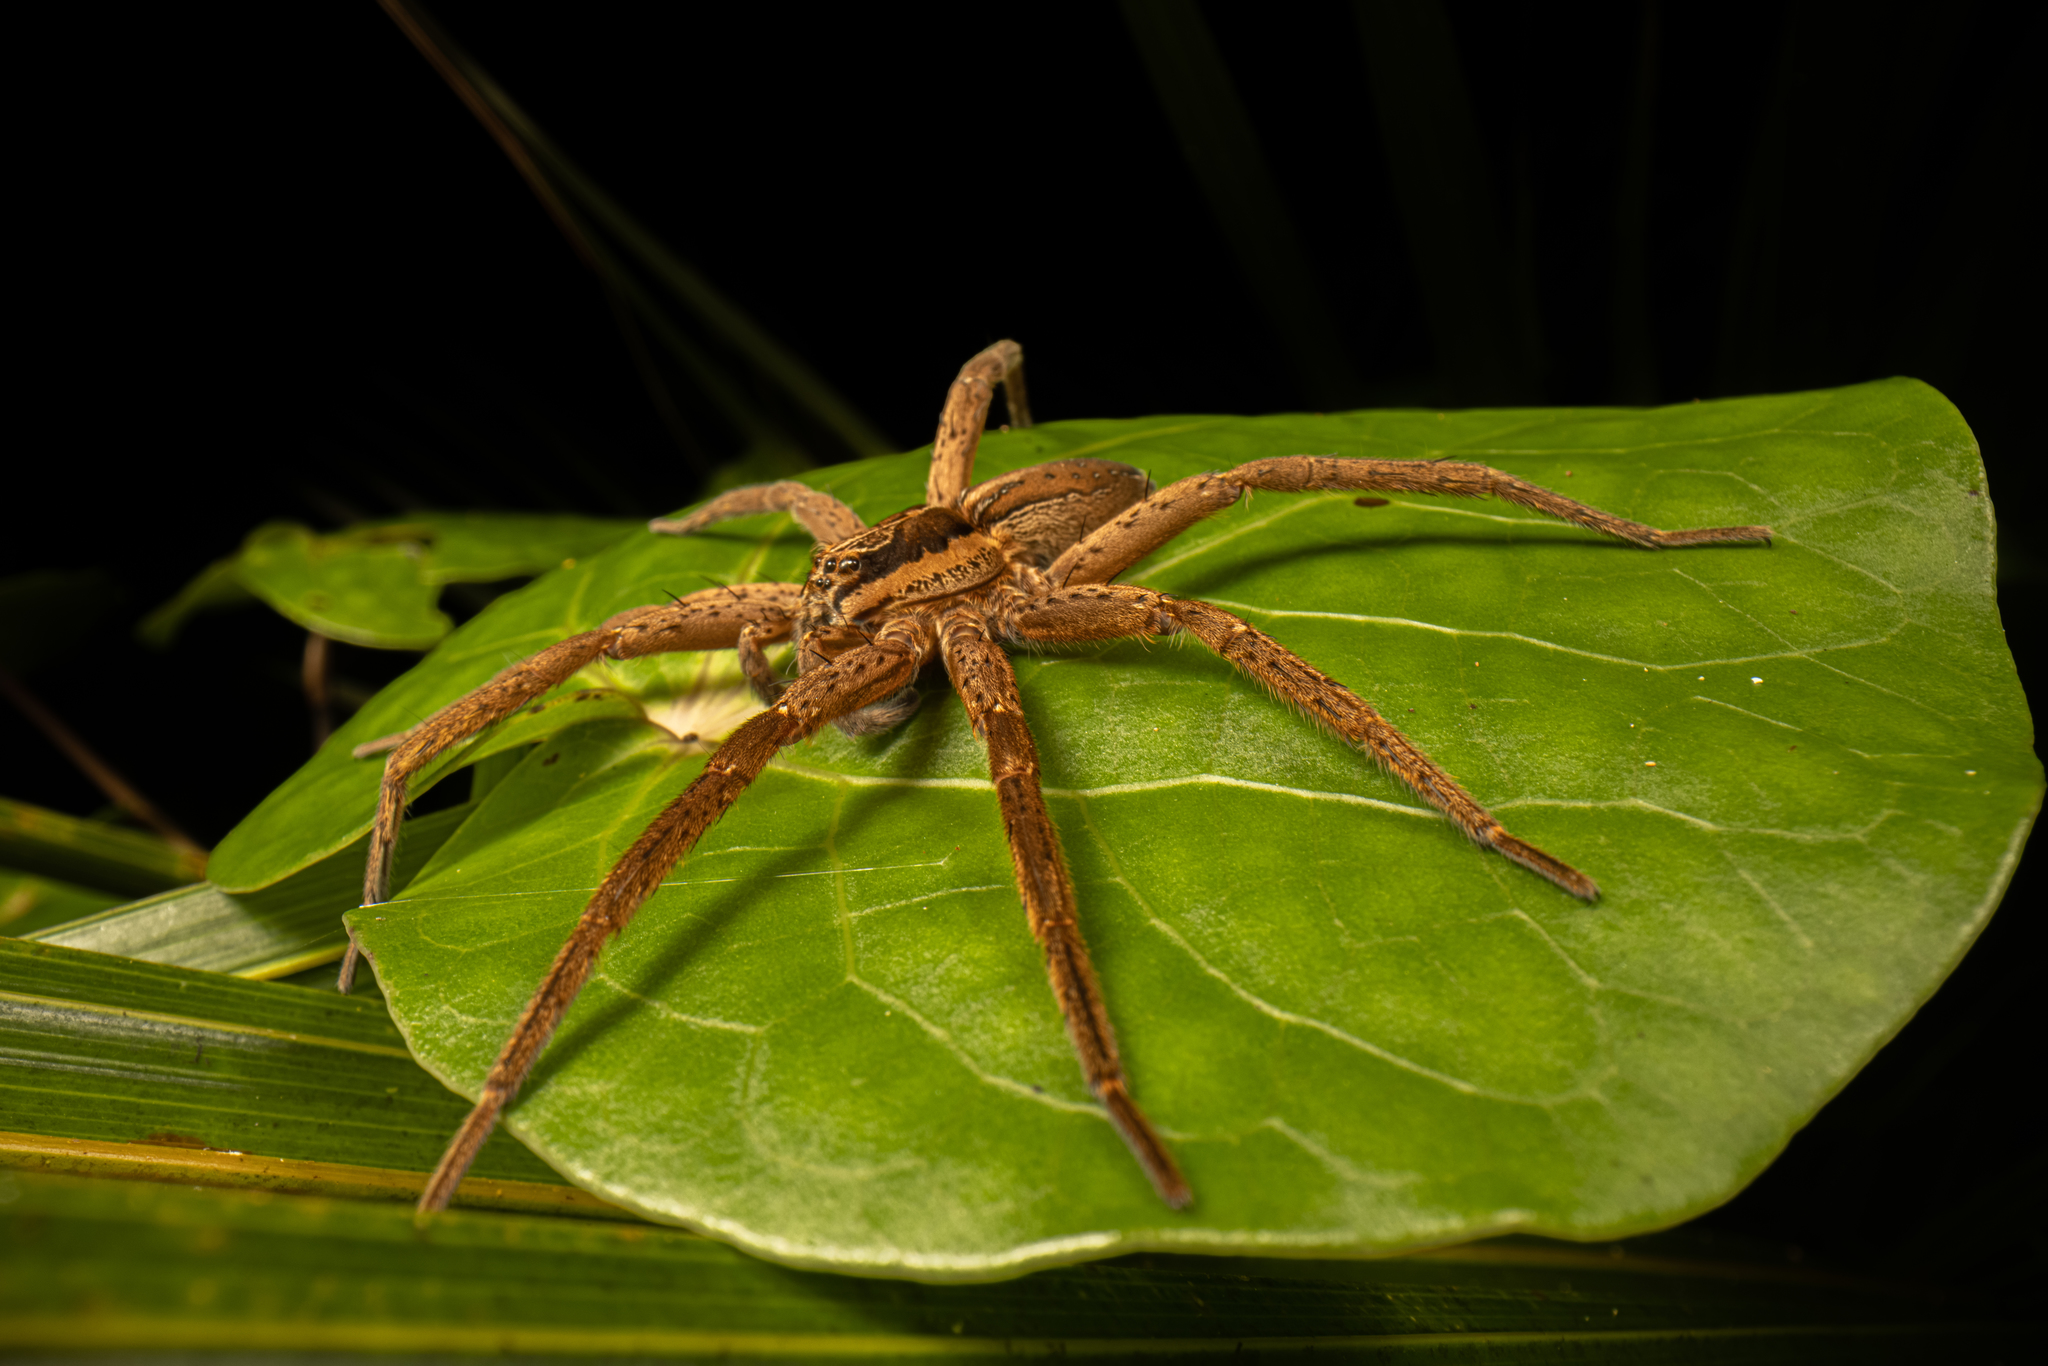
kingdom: Animalia
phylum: Arthropoda
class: Arachnida
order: Araneae
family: Pisauridae
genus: Dolomedes
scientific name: Dolomedes minor
